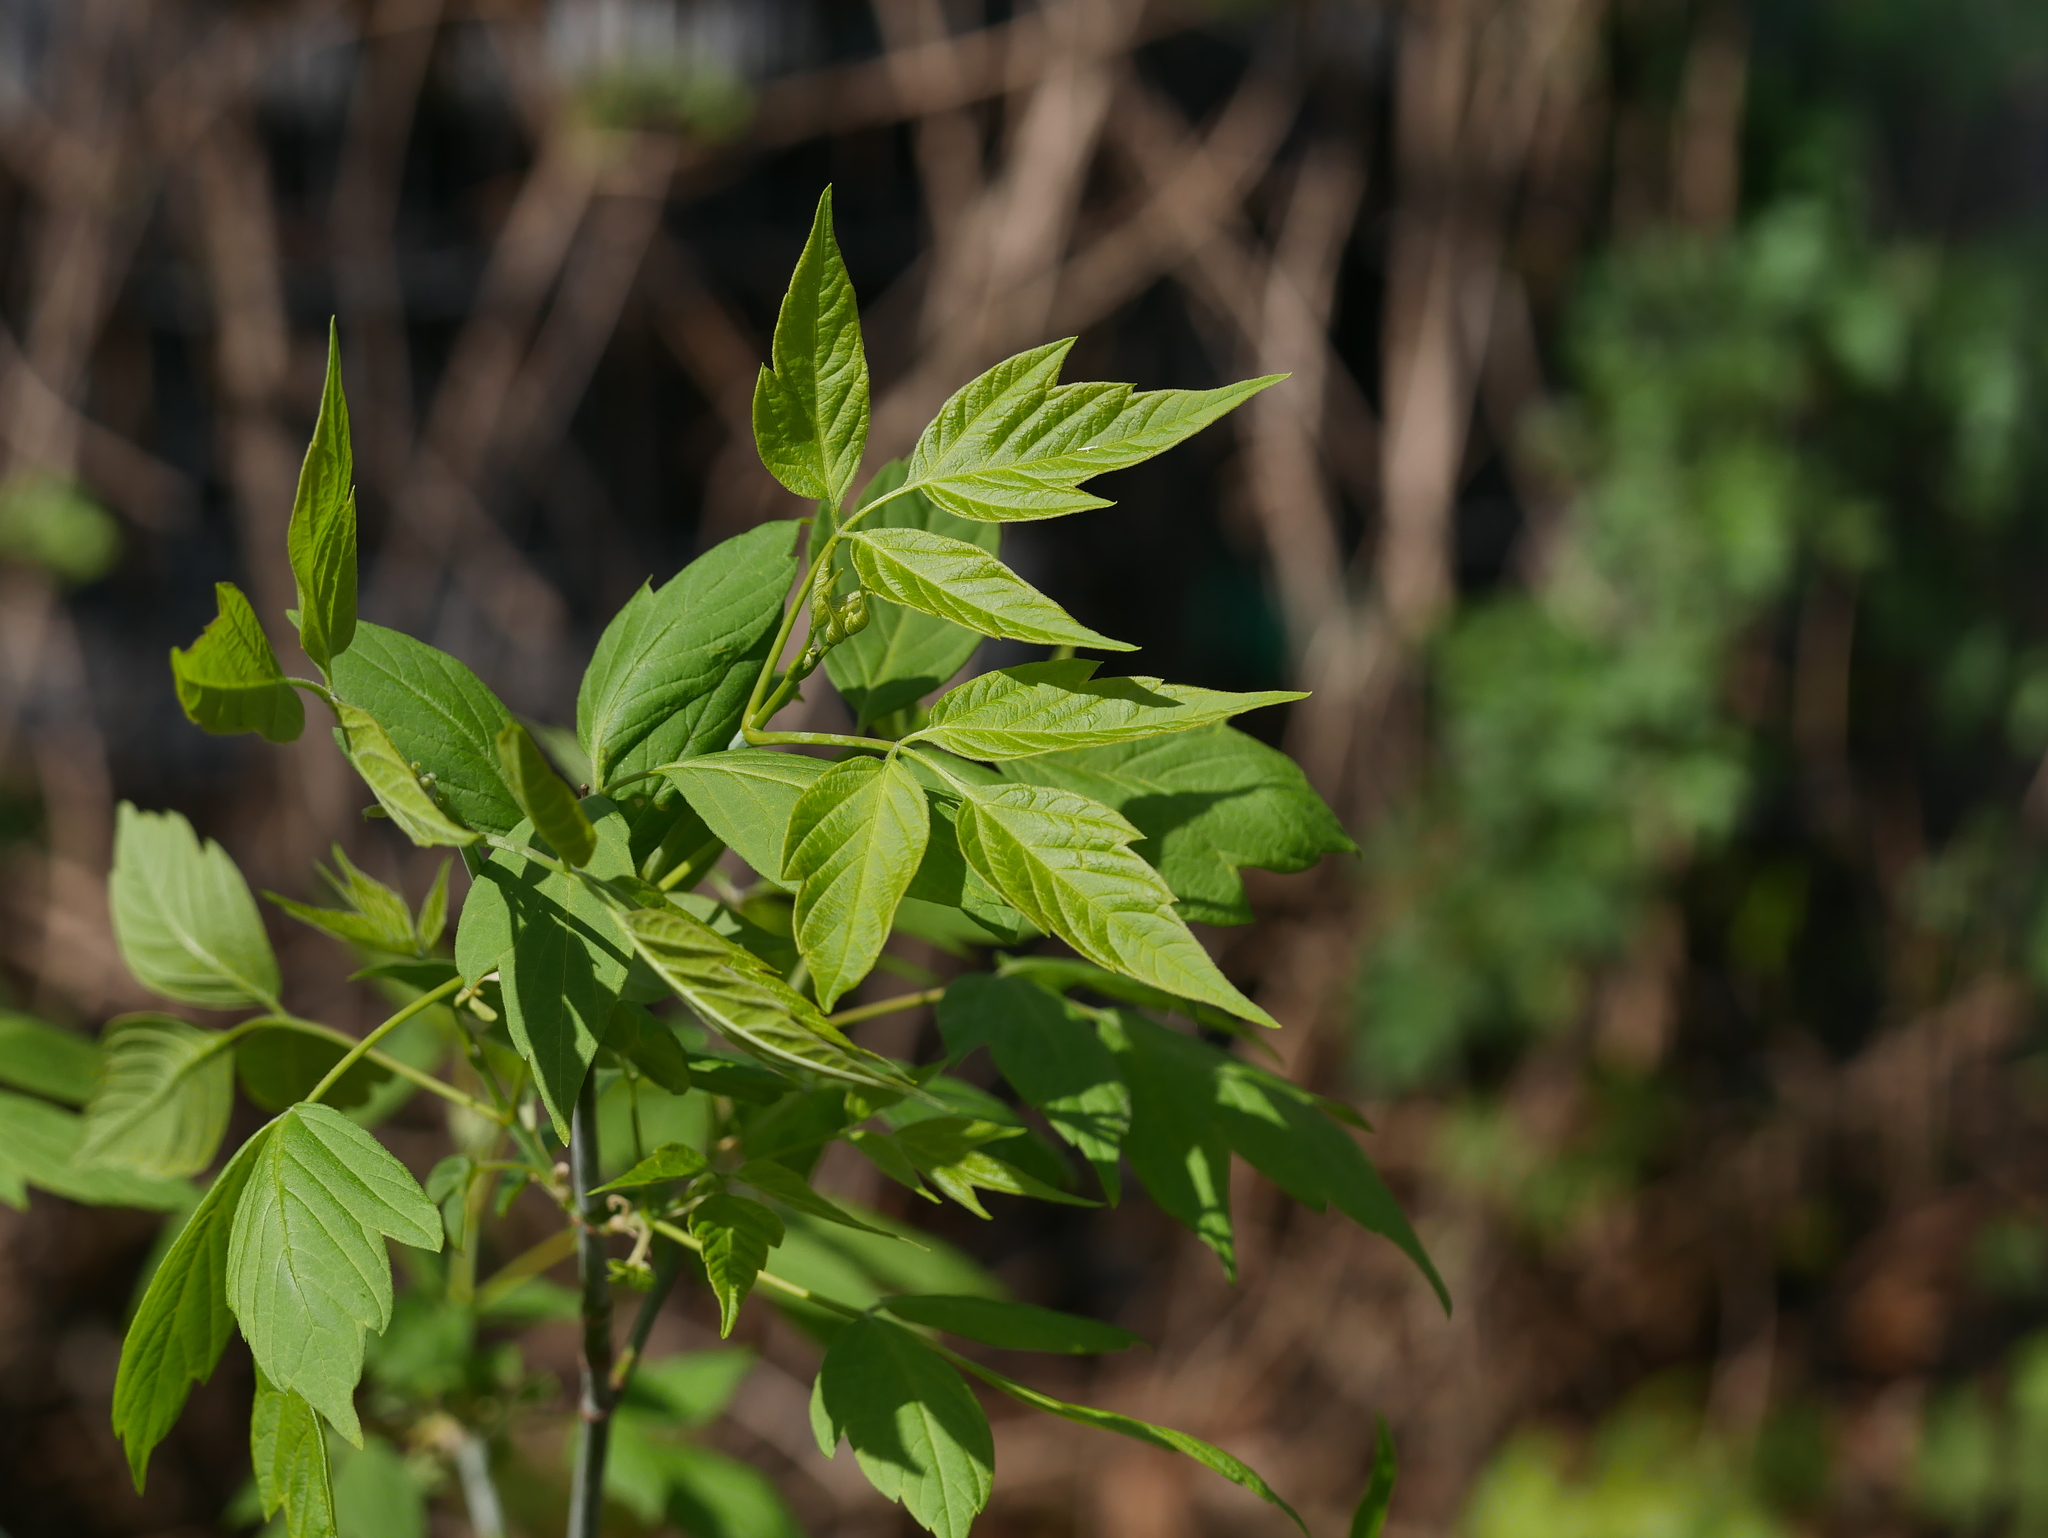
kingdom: Plantae
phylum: Tracheophyta
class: Magnoliopsida
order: Sapindales
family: Sapindaceae
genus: Acer
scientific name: Acer negundo
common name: Ashleaf maple
